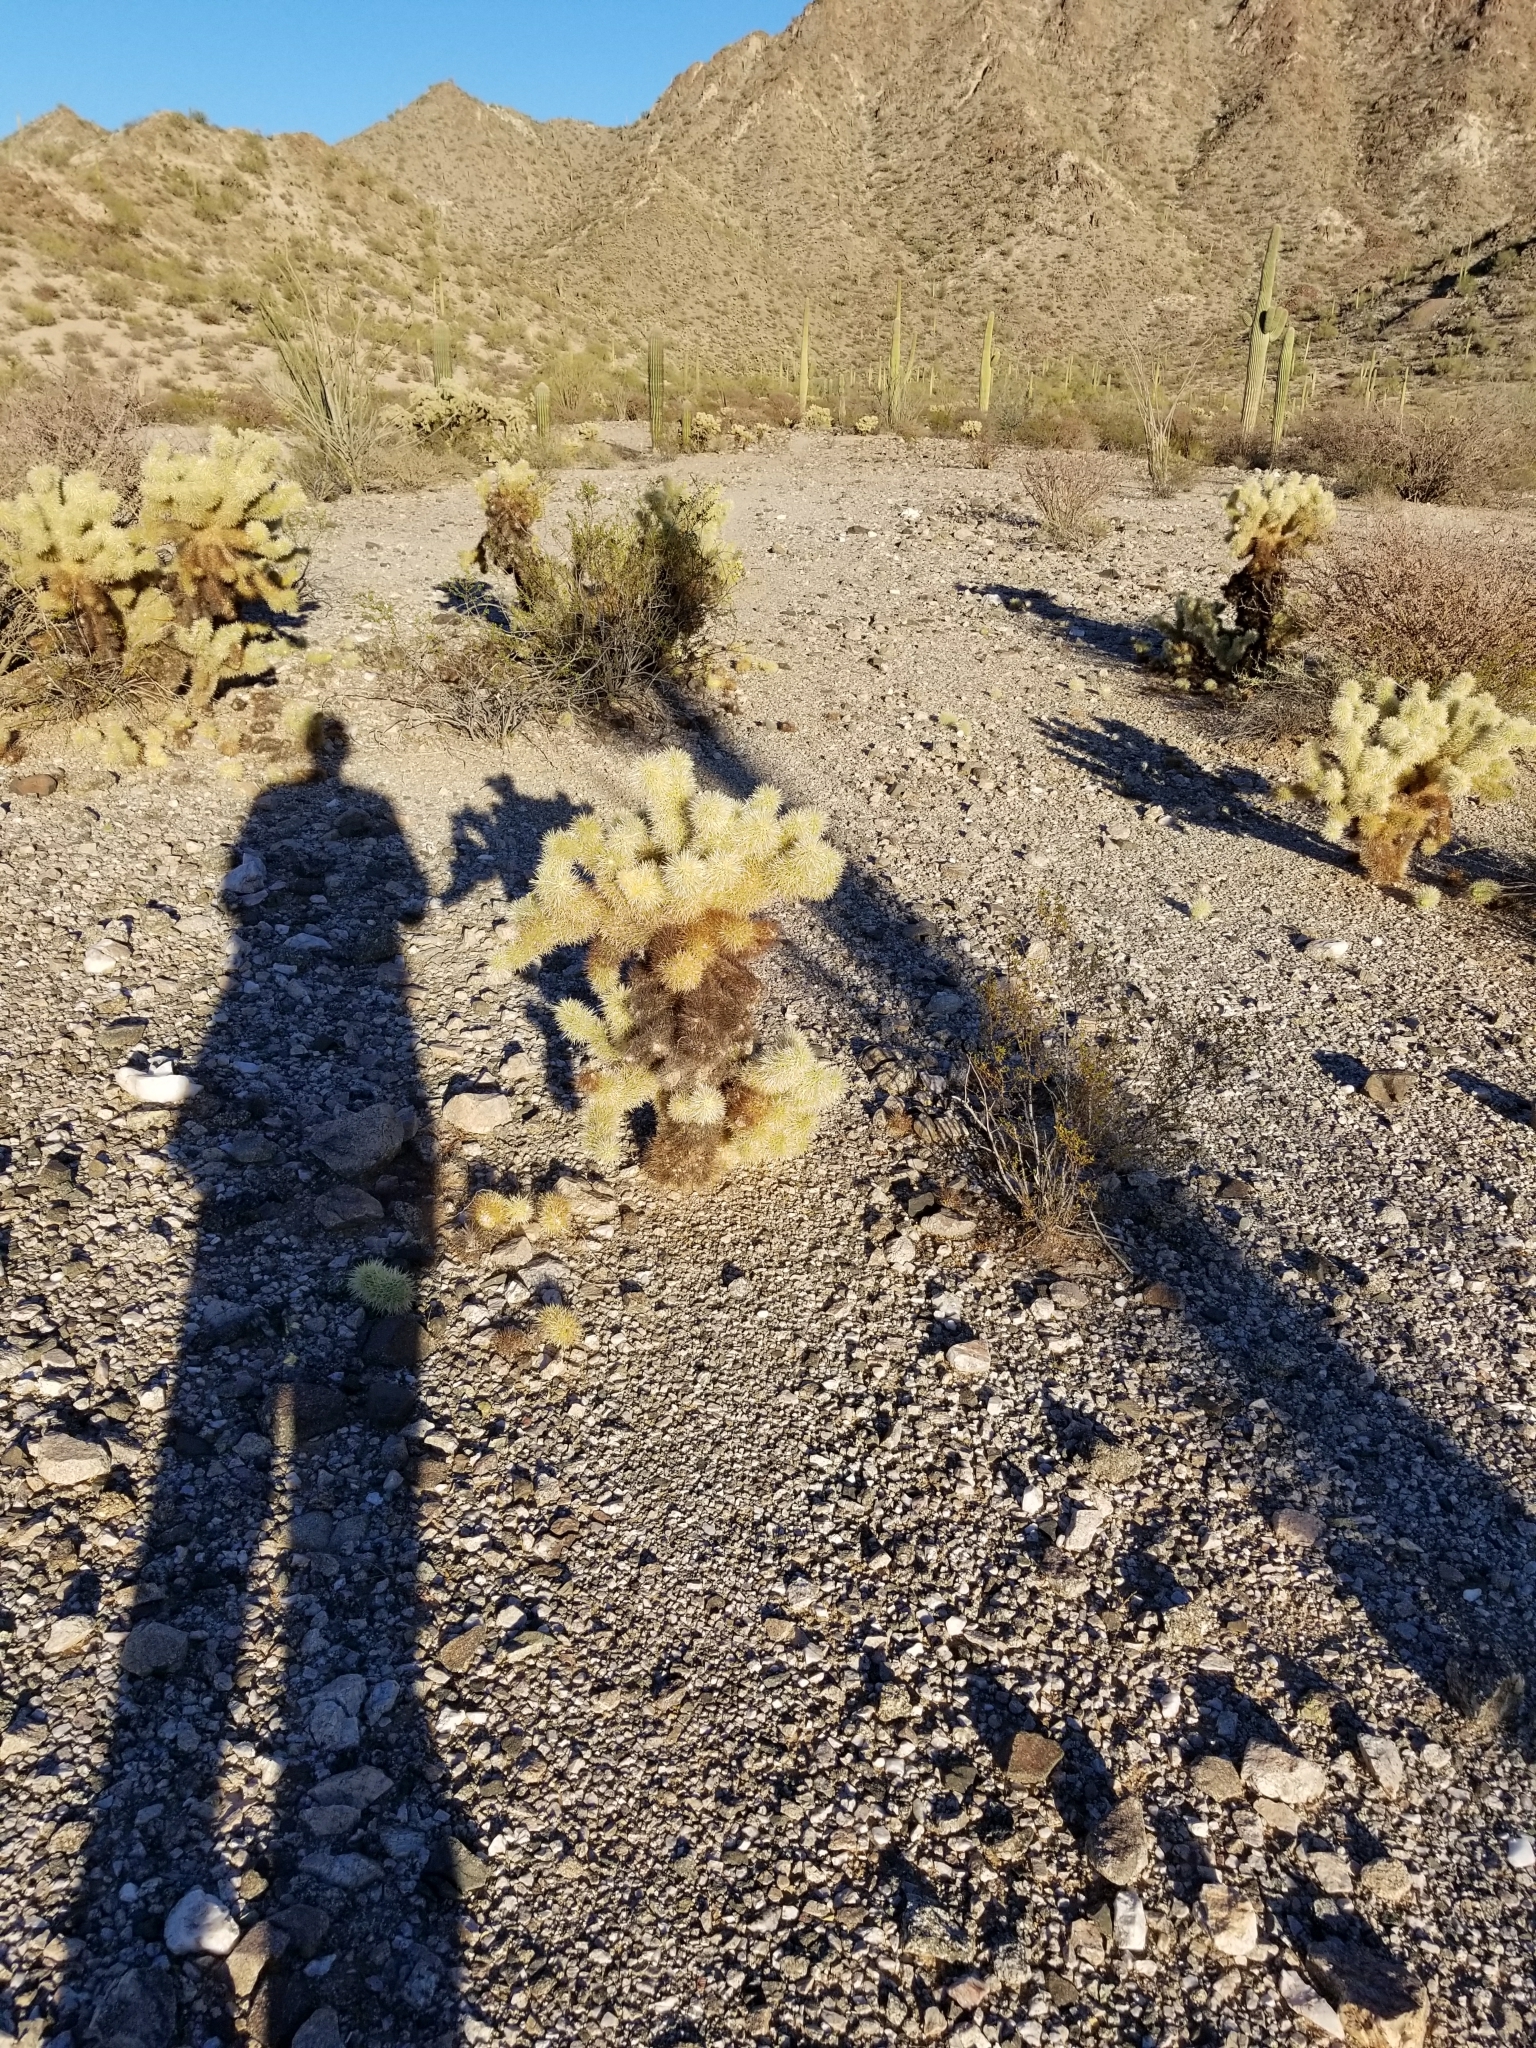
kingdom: Plantae
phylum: Tracheophyta
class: Magnoliopsida
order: Caryophyllales
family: Cactaceae
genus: Cylindropuntia
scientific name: Cylindropuntia fosbergii
